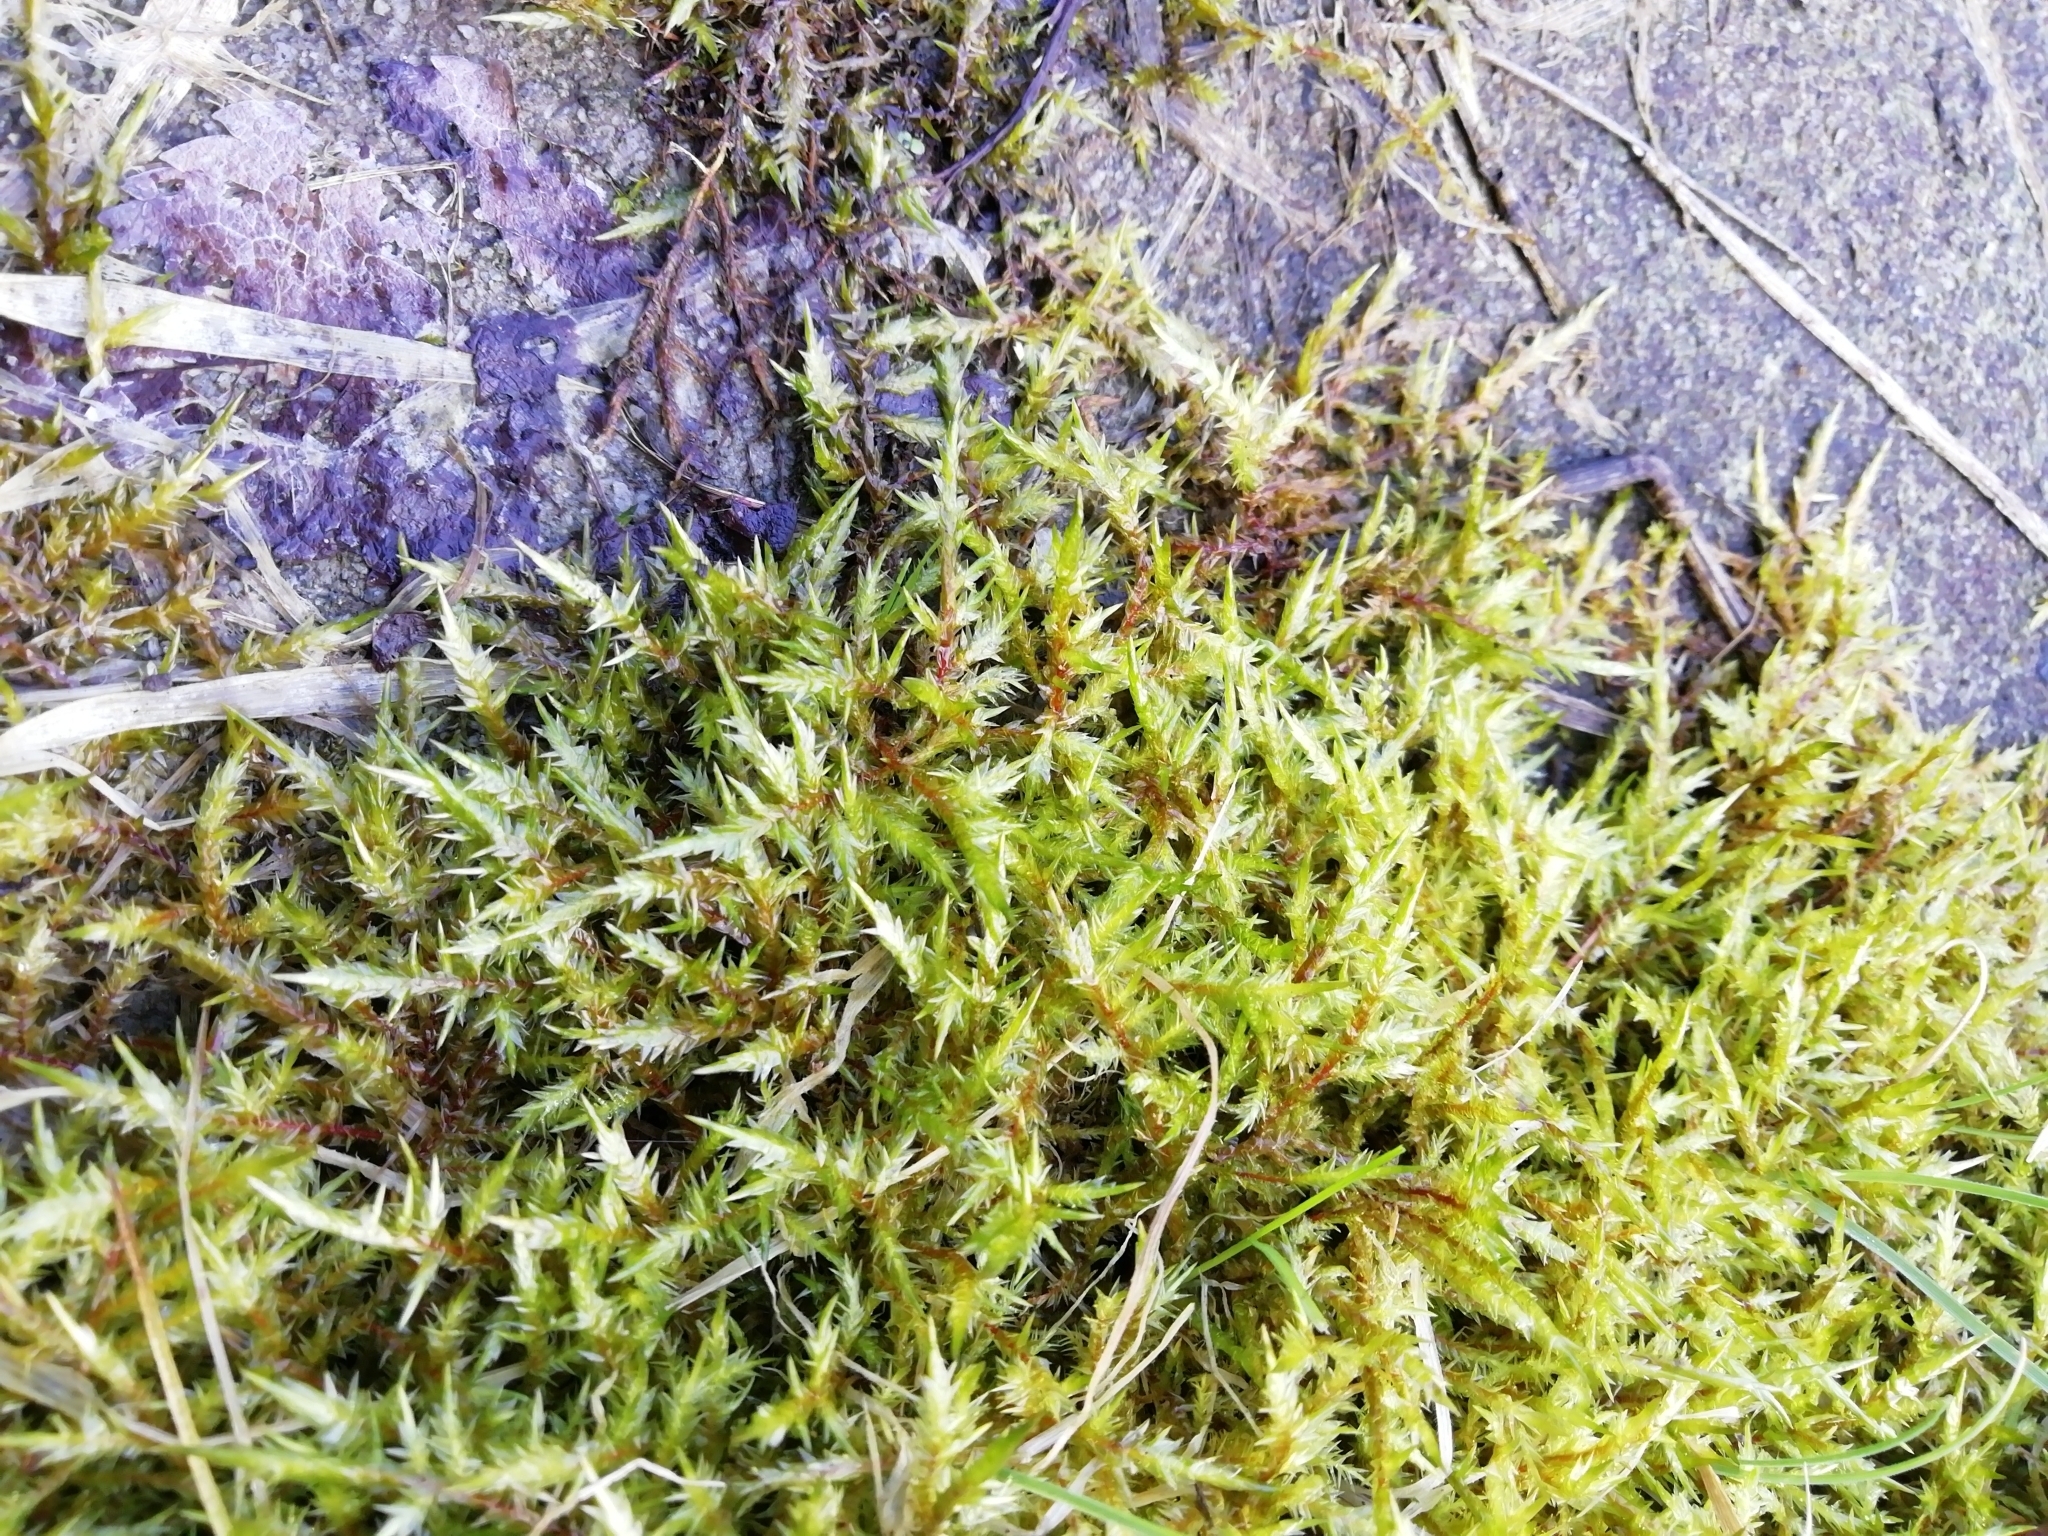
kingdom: Plantae
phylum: Bryophyta
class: Bryopsida
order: Hypnales
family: Pylaisiaceae
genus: Calliergonella
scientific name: Calliergonella cuspidata
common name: Common large wetland moss
